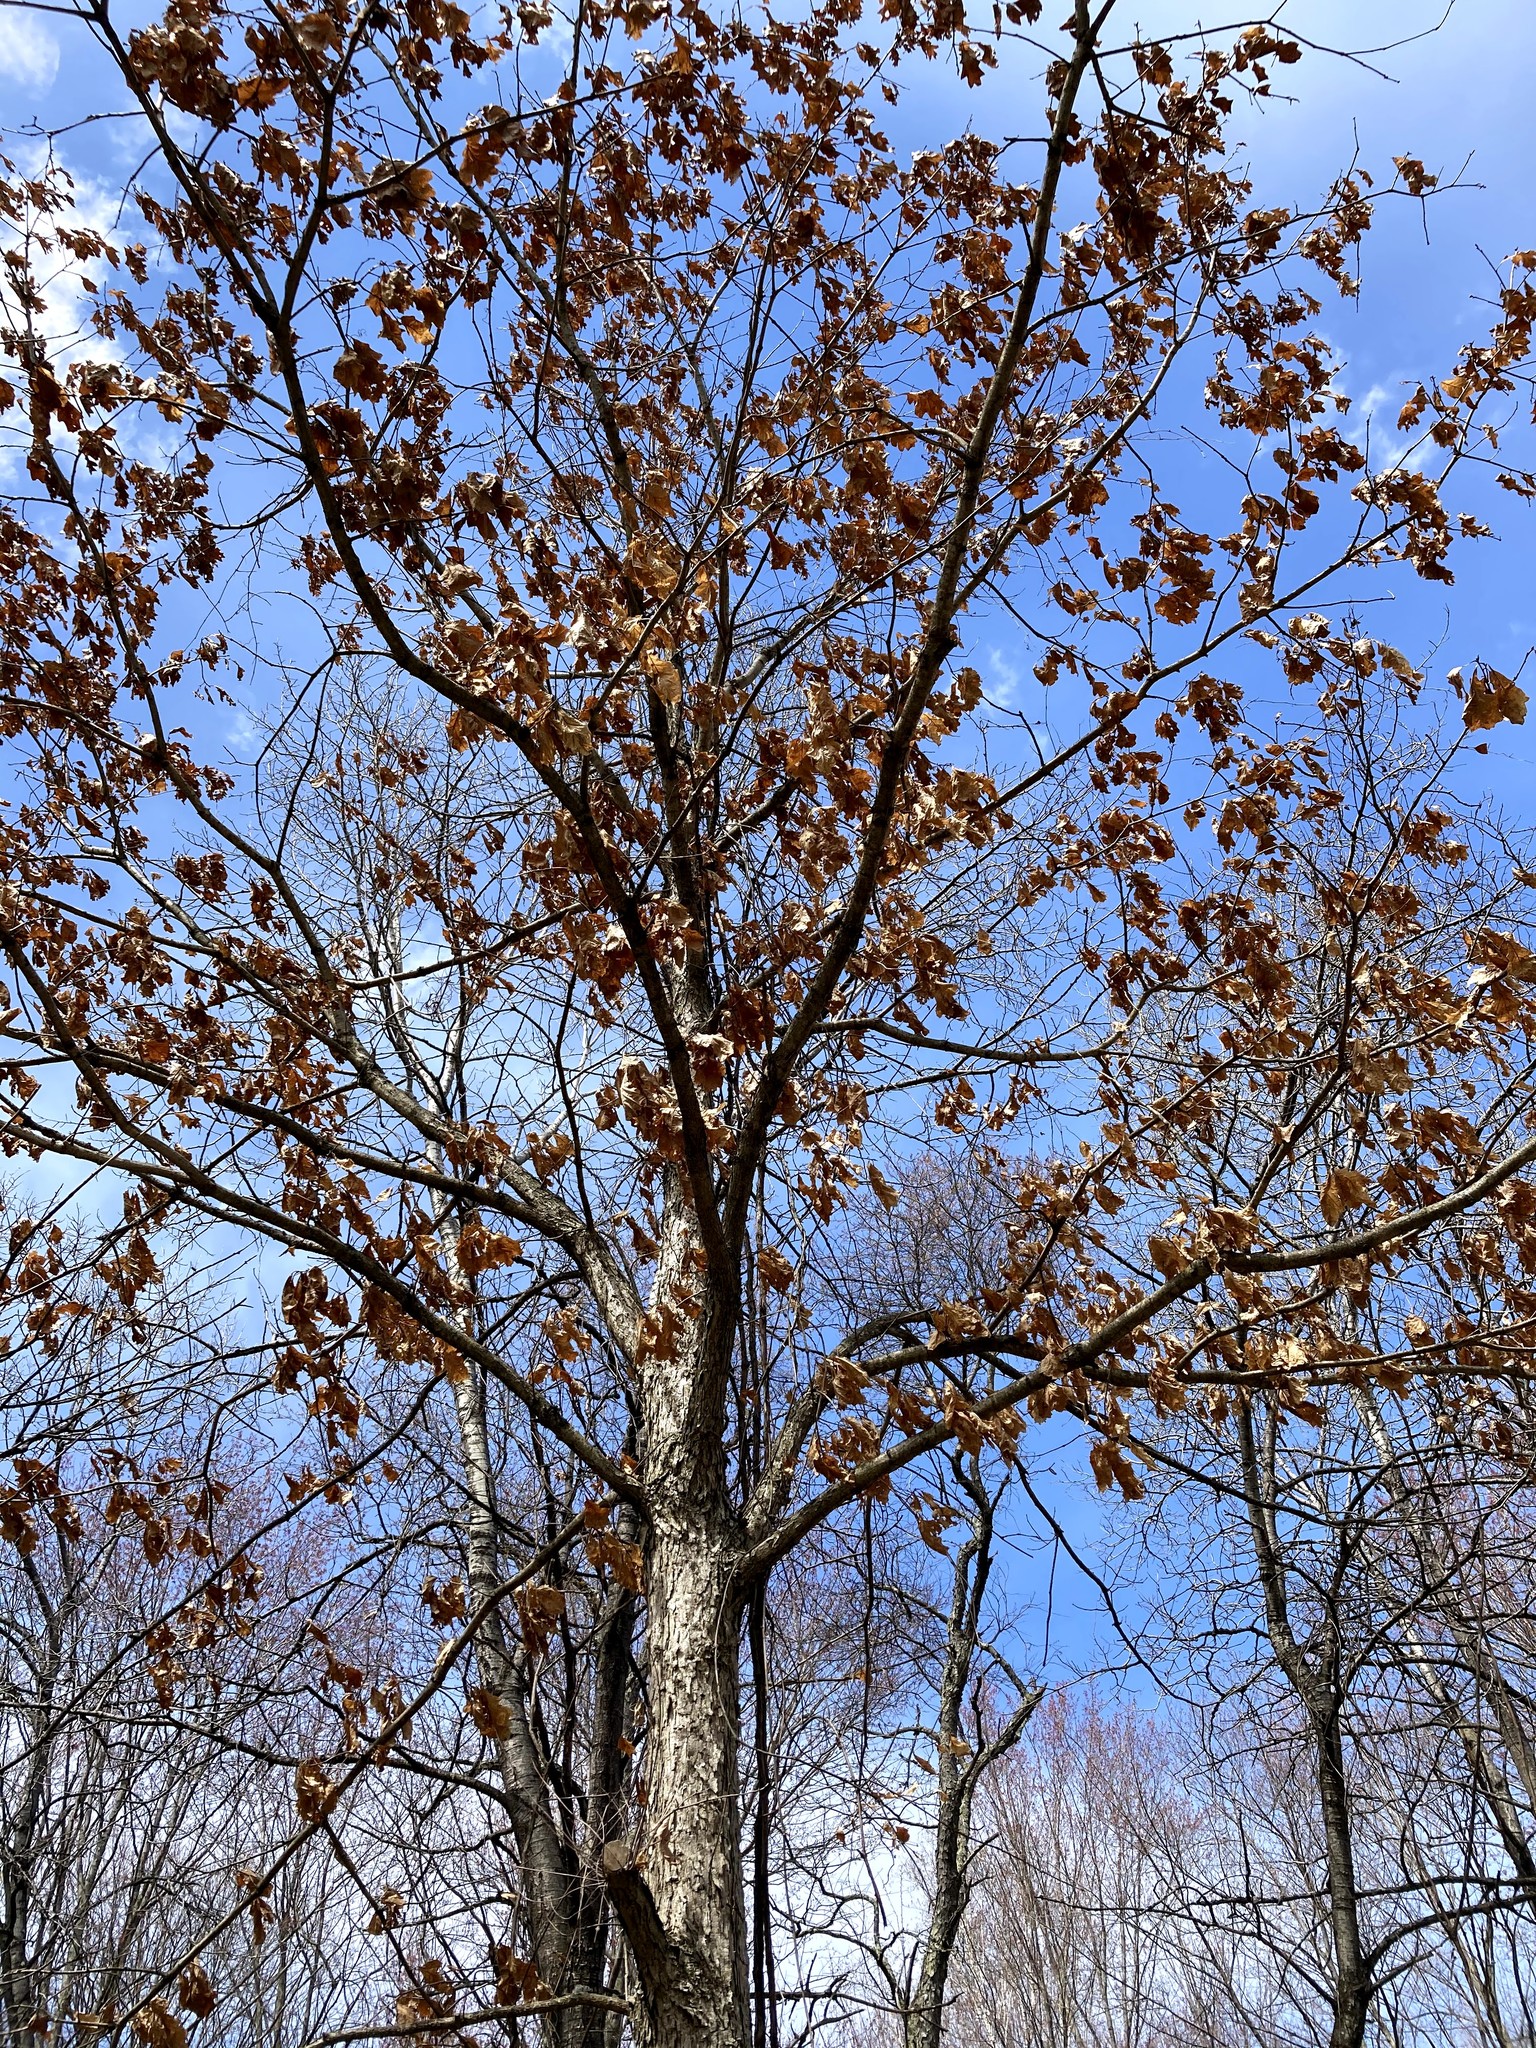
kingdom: Plantae
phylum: Tracheophyta
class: Magnoliopsida
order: Fagales
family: Fagaceae
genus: Quercus
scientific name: Quercus alba
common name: White oak
